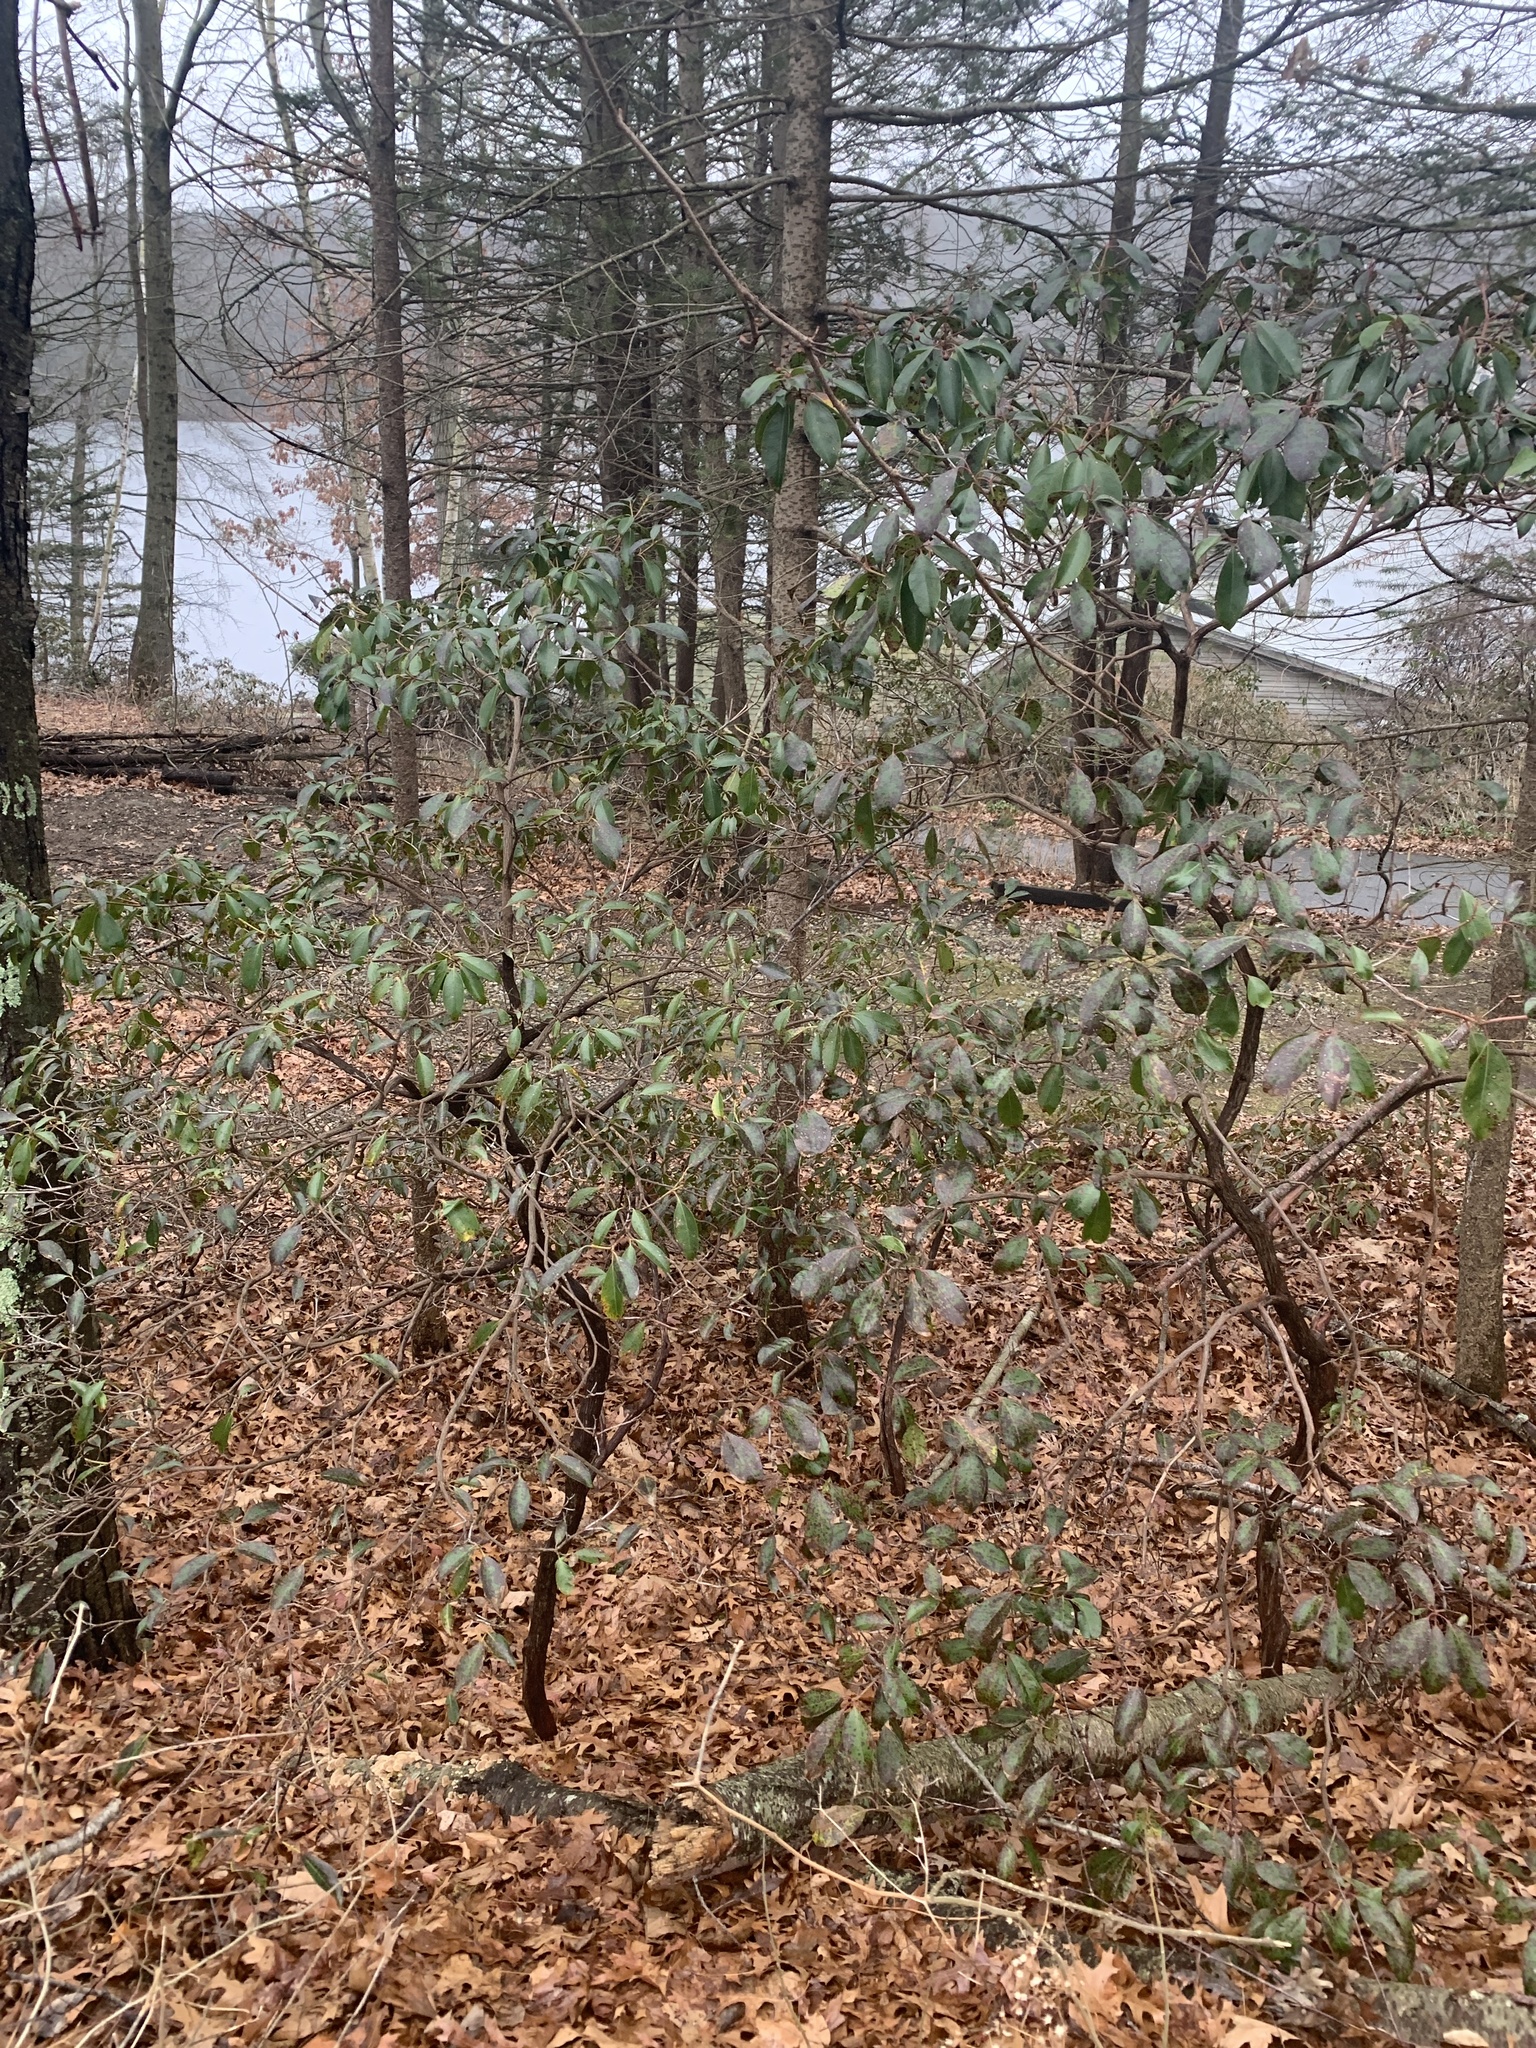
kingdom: Plantae
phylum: Tracheophyta
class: Magnoliopsida
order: Ericales
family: Ericaceae
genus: Kalmia
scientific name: Kalmia latifolia
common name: Mountain-laurel
